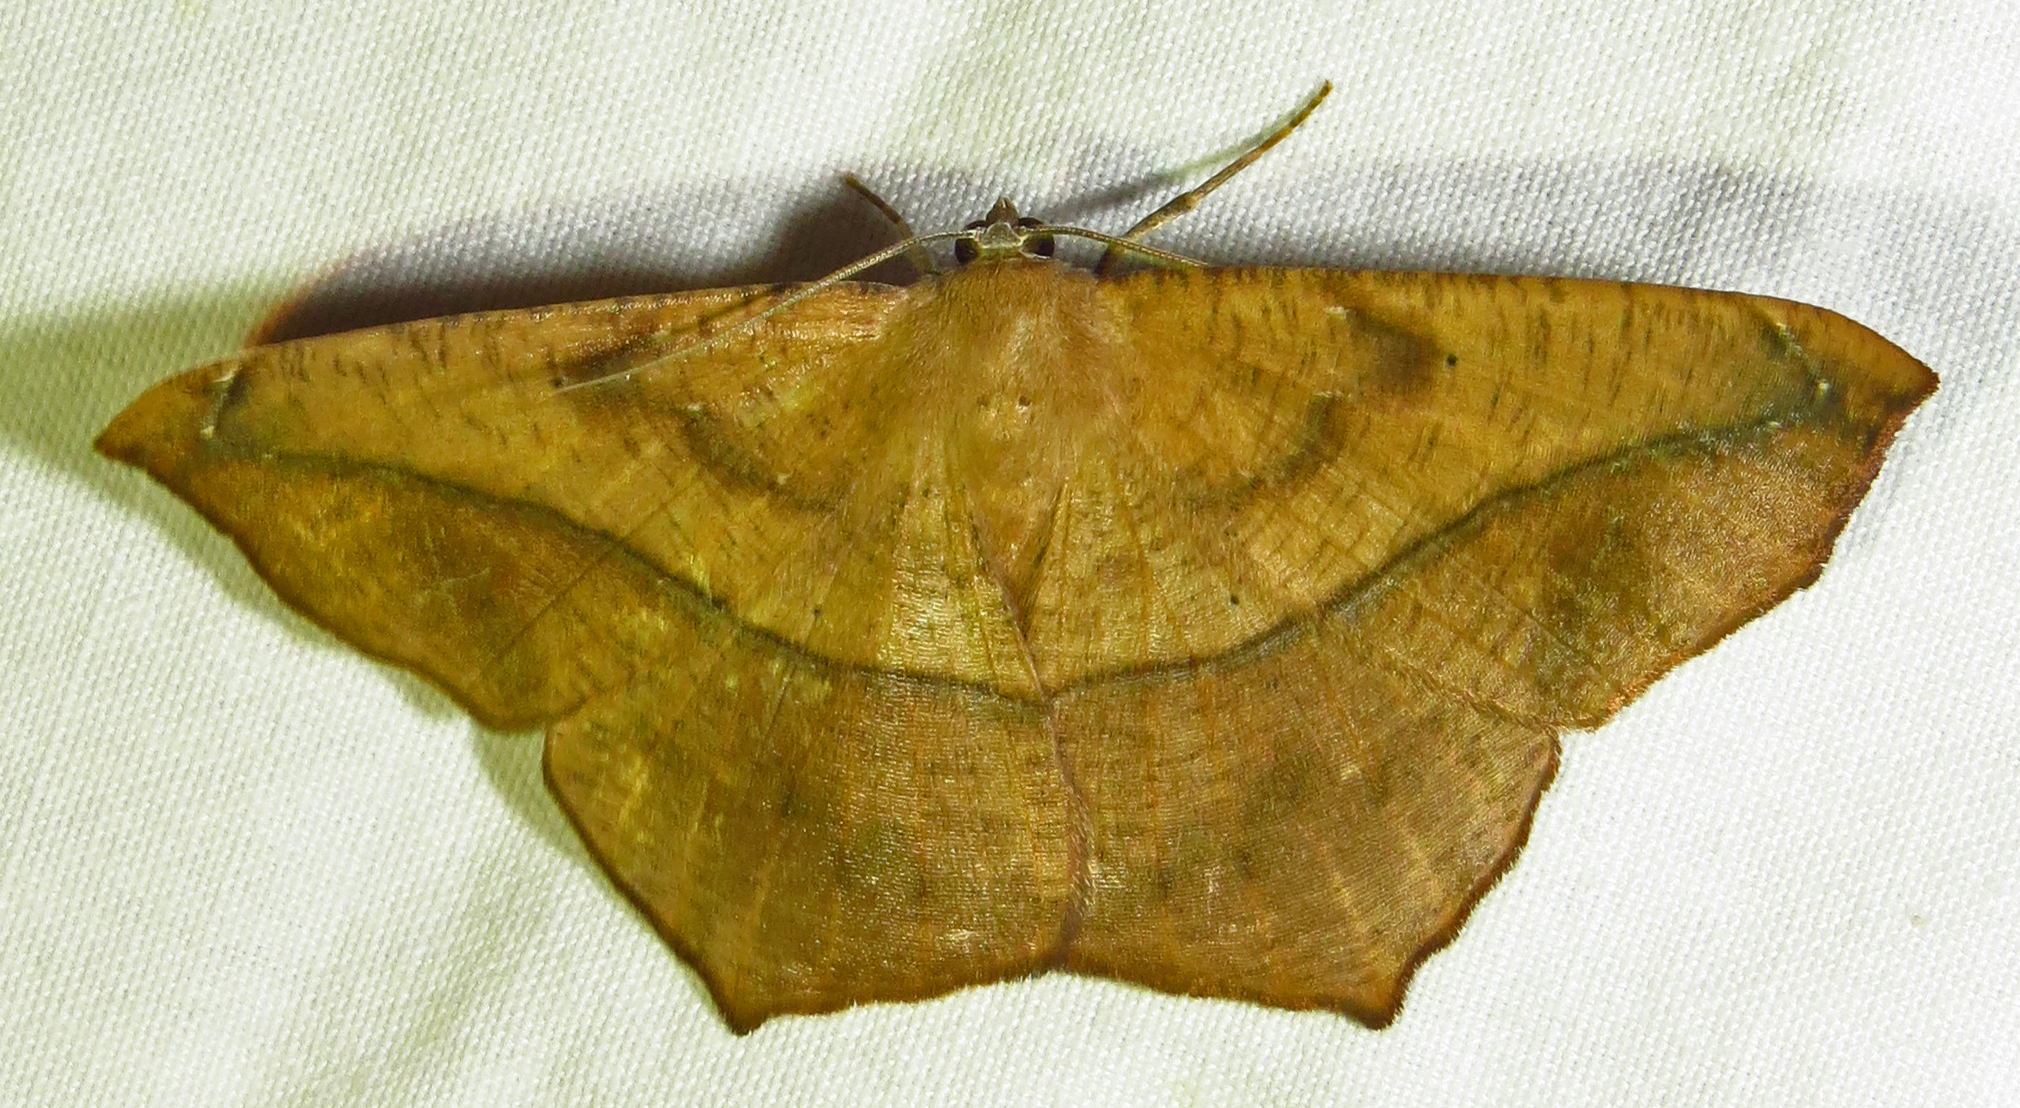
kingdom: Animalia
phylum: Arthropoda
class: Insecta
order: Lepidoptera
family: Geometridae
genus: Prochoerodes
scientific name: Prochoerodes lineola
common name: Large maple spanworm
